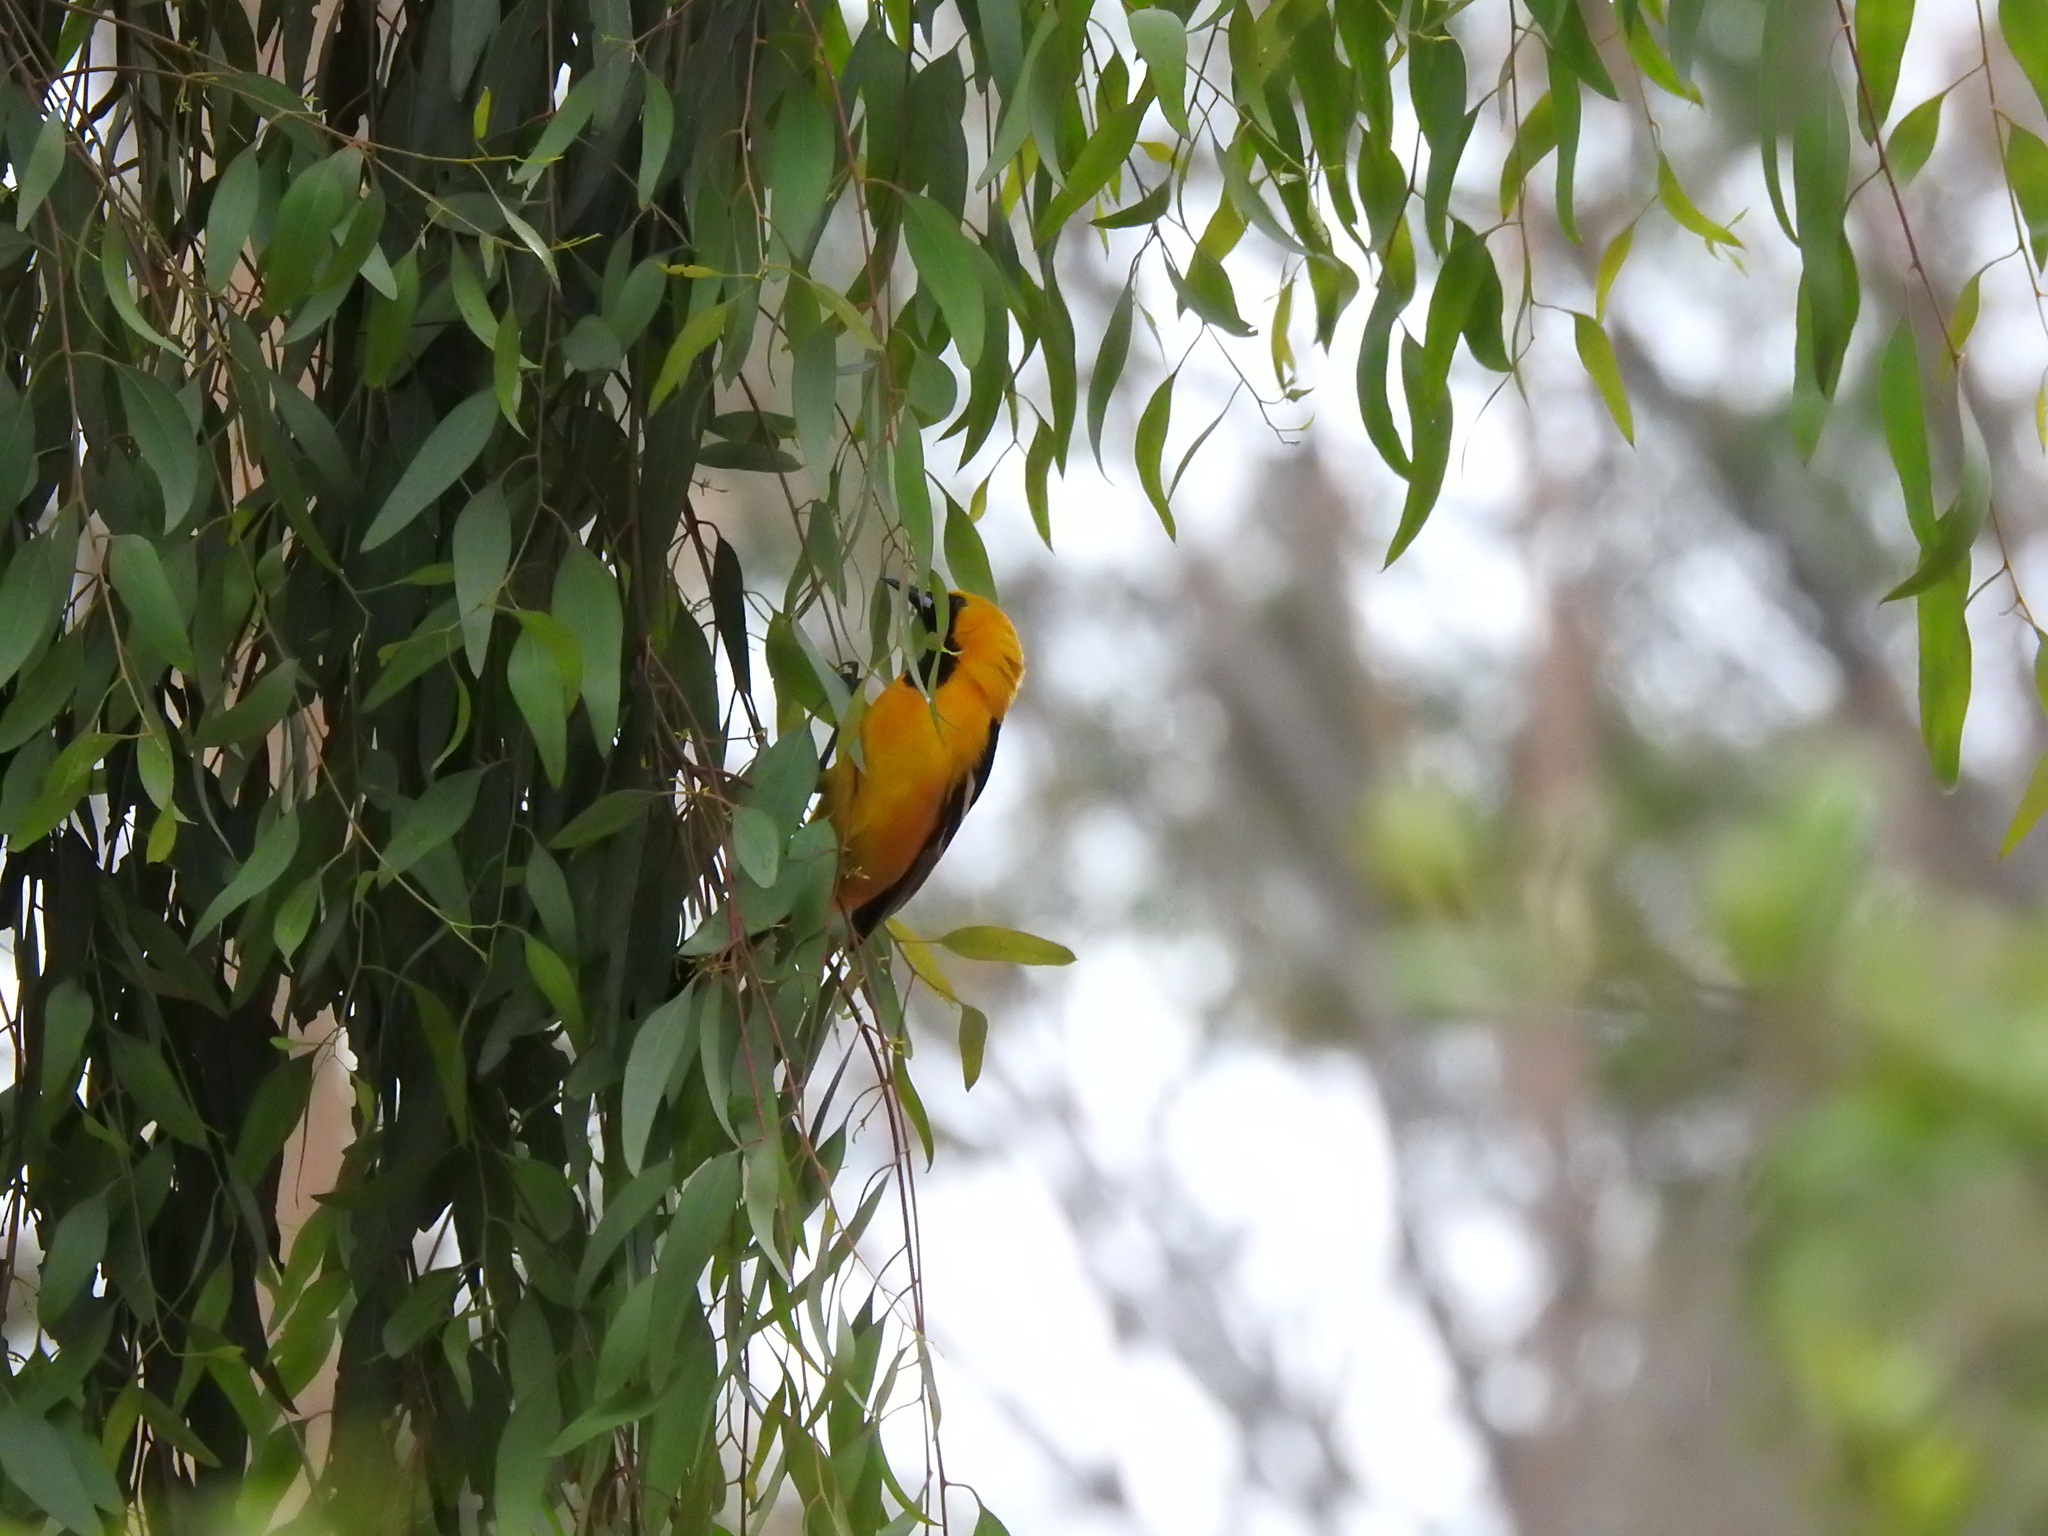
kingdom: Animalia
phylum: Chordata
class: Aves
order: Passeriformes
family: Icteridae
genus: Icterus
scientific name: Icterus cucullatus
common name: Hooded oriole
